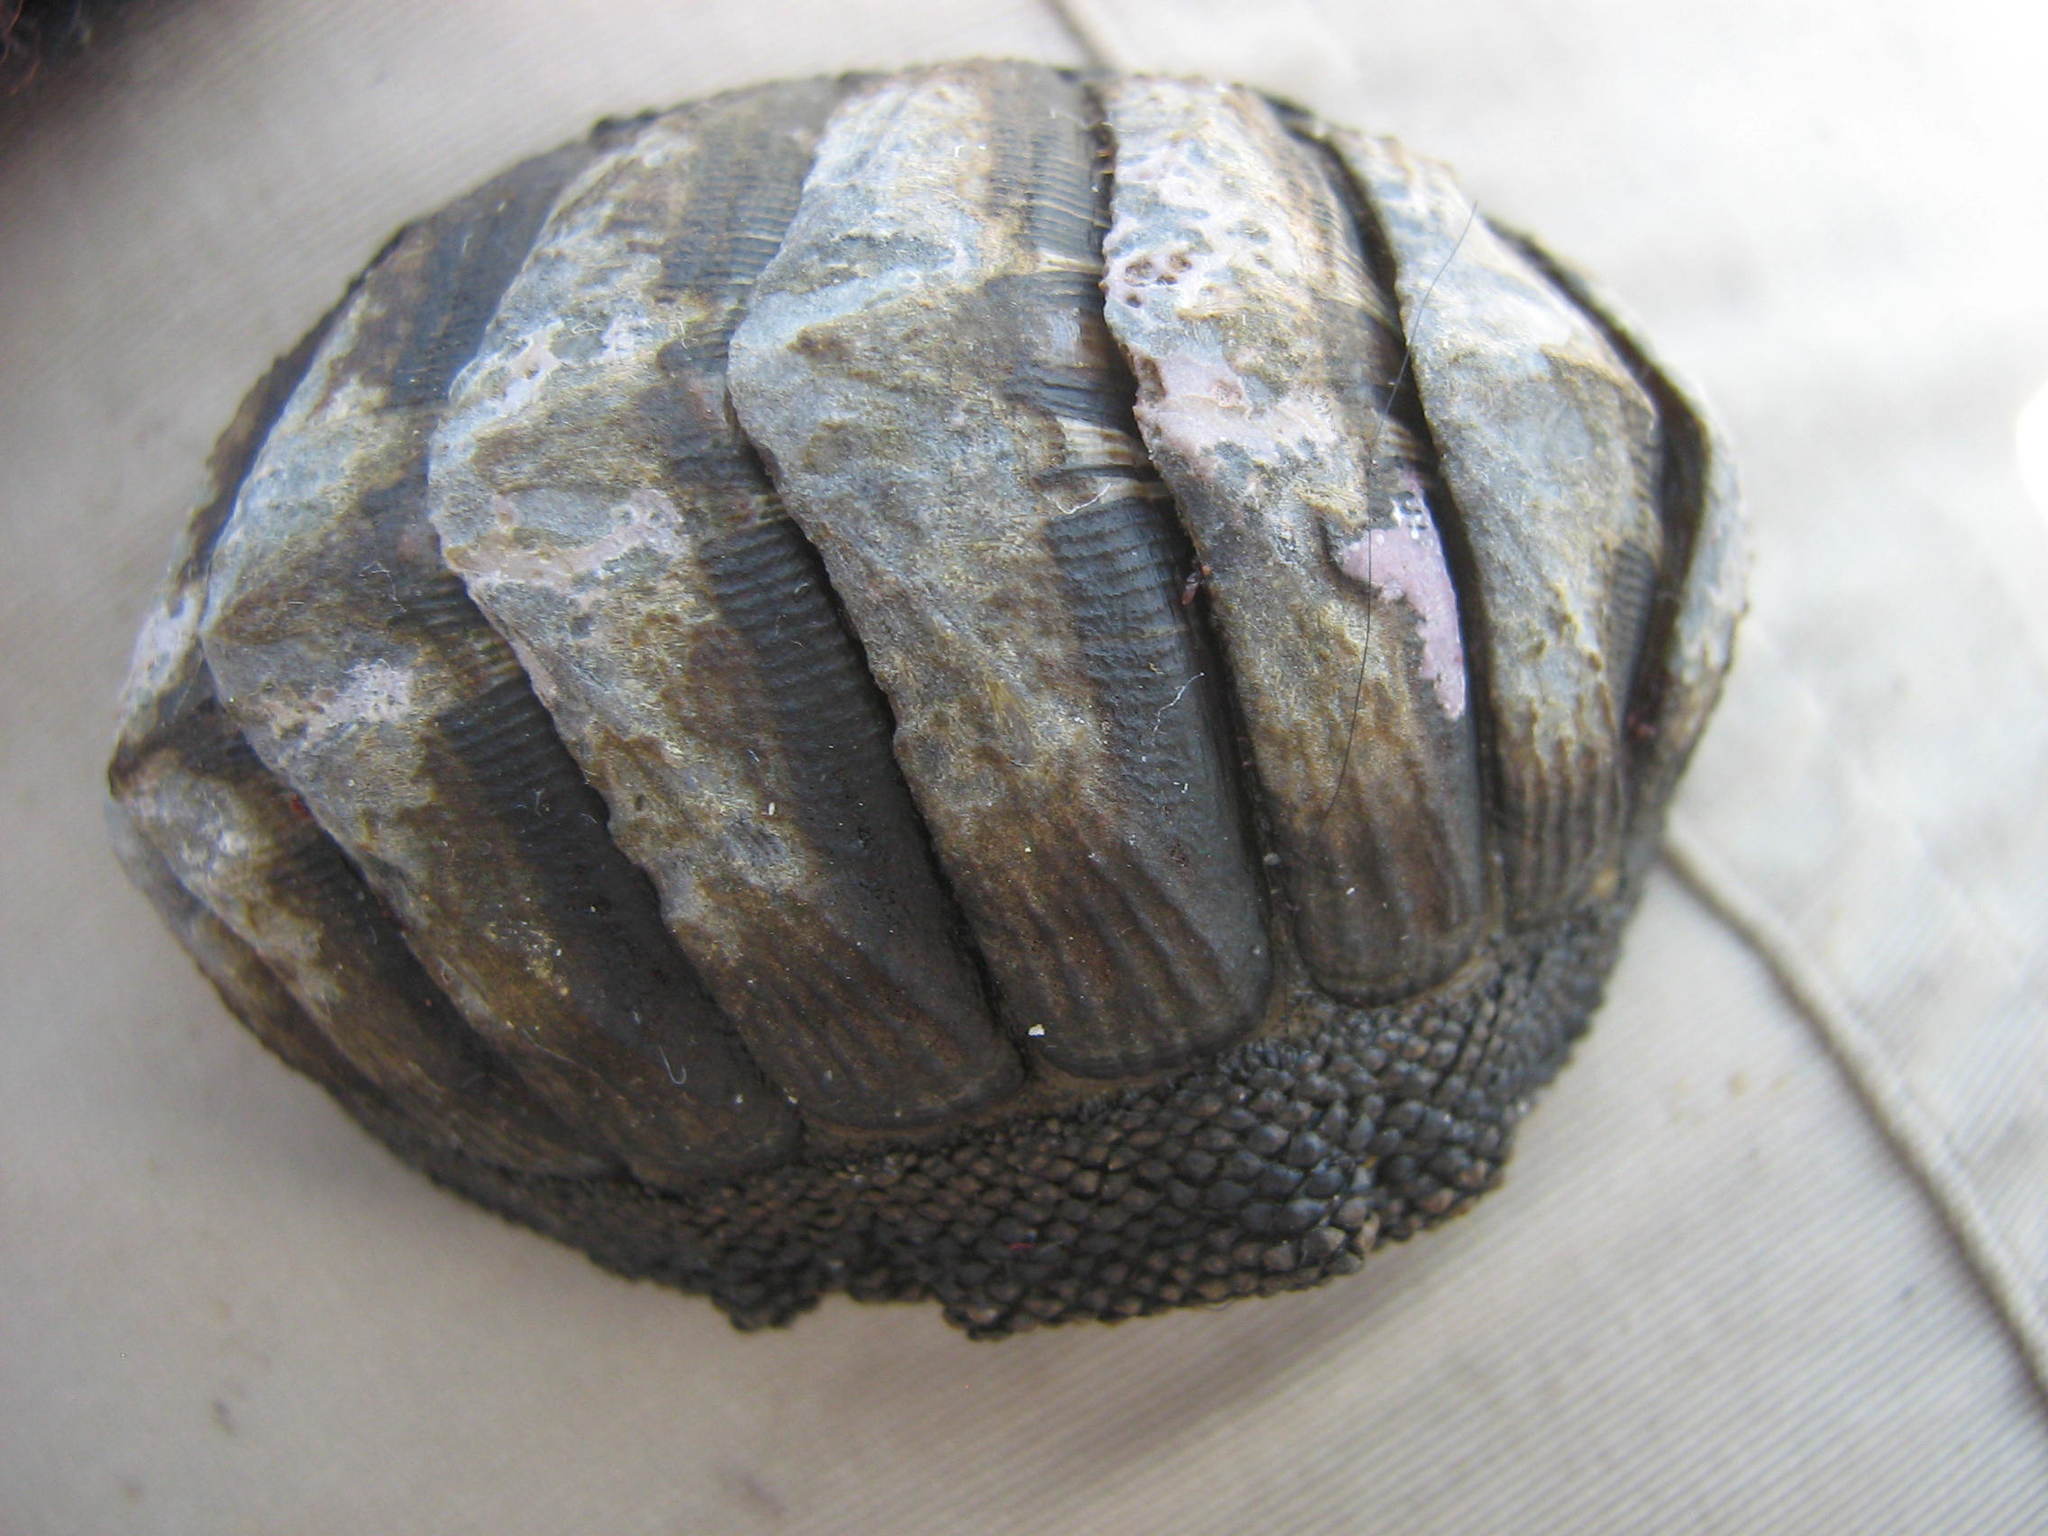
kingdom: Animalia
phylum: Mollusca
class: Polyplacophora
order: Chitonida
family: Chitonidae
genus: Chiton
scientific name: Chiton granosus
